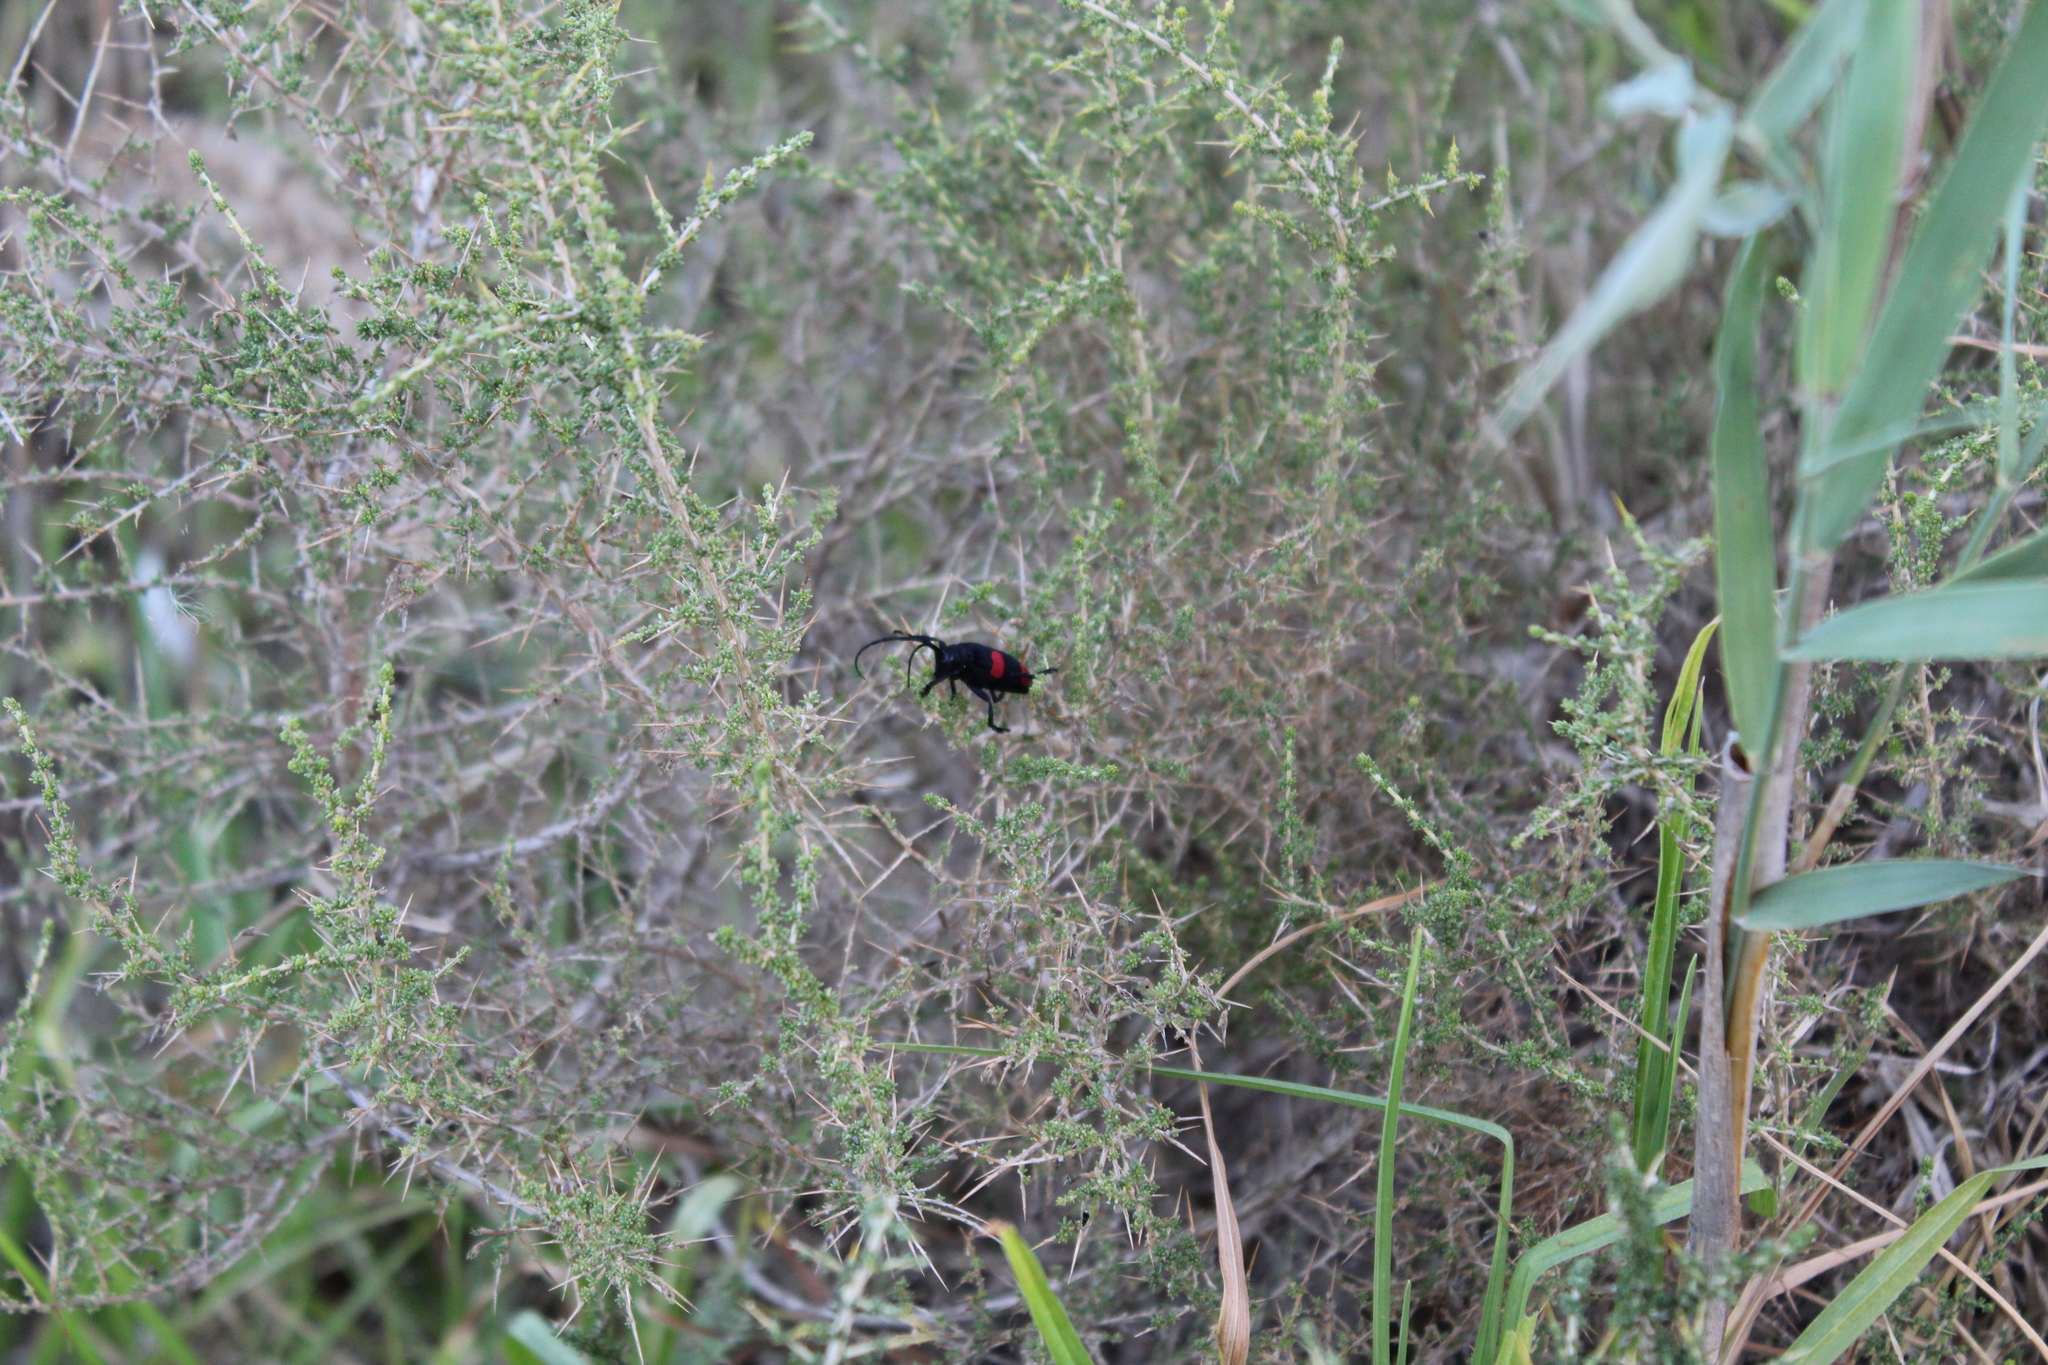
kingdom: Animalia
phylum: Arthropoda
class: Insecta
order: Coleoptera
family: Cerambycidae
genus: Ceroplesis
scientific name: Ceroplesis aethiops
